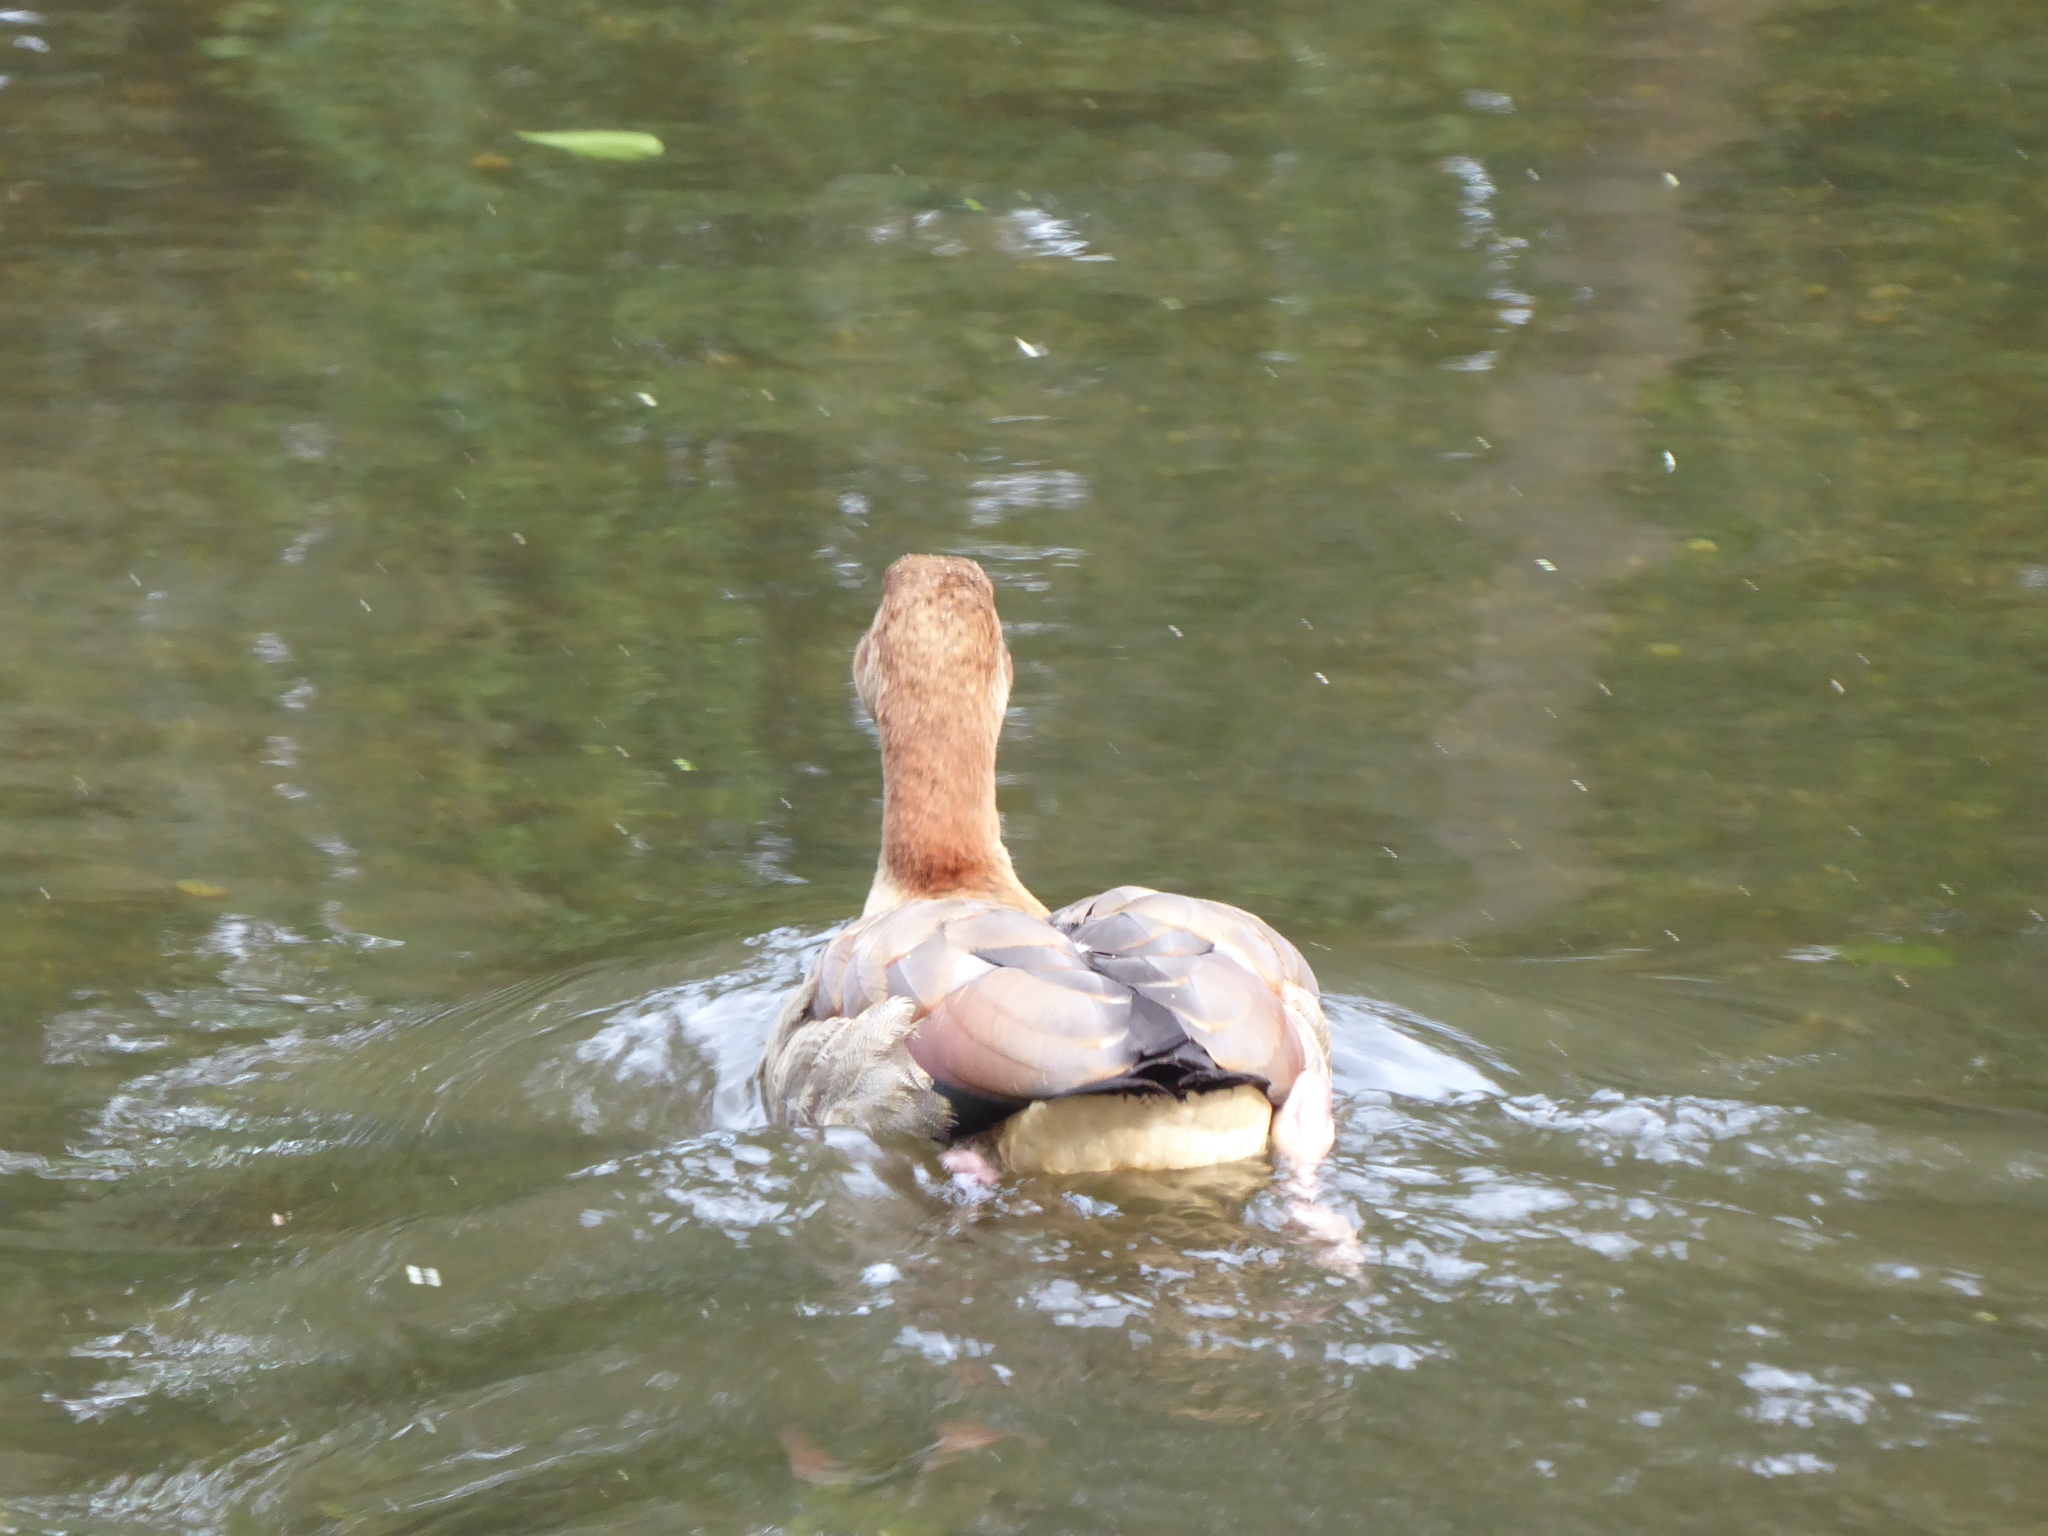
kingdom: Animalia
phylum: Chordata
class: Aves
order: Anseriformes
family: Anatidae
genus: Alopochen
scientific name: Alopochen aegyptiaca
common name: Egyptian goose
